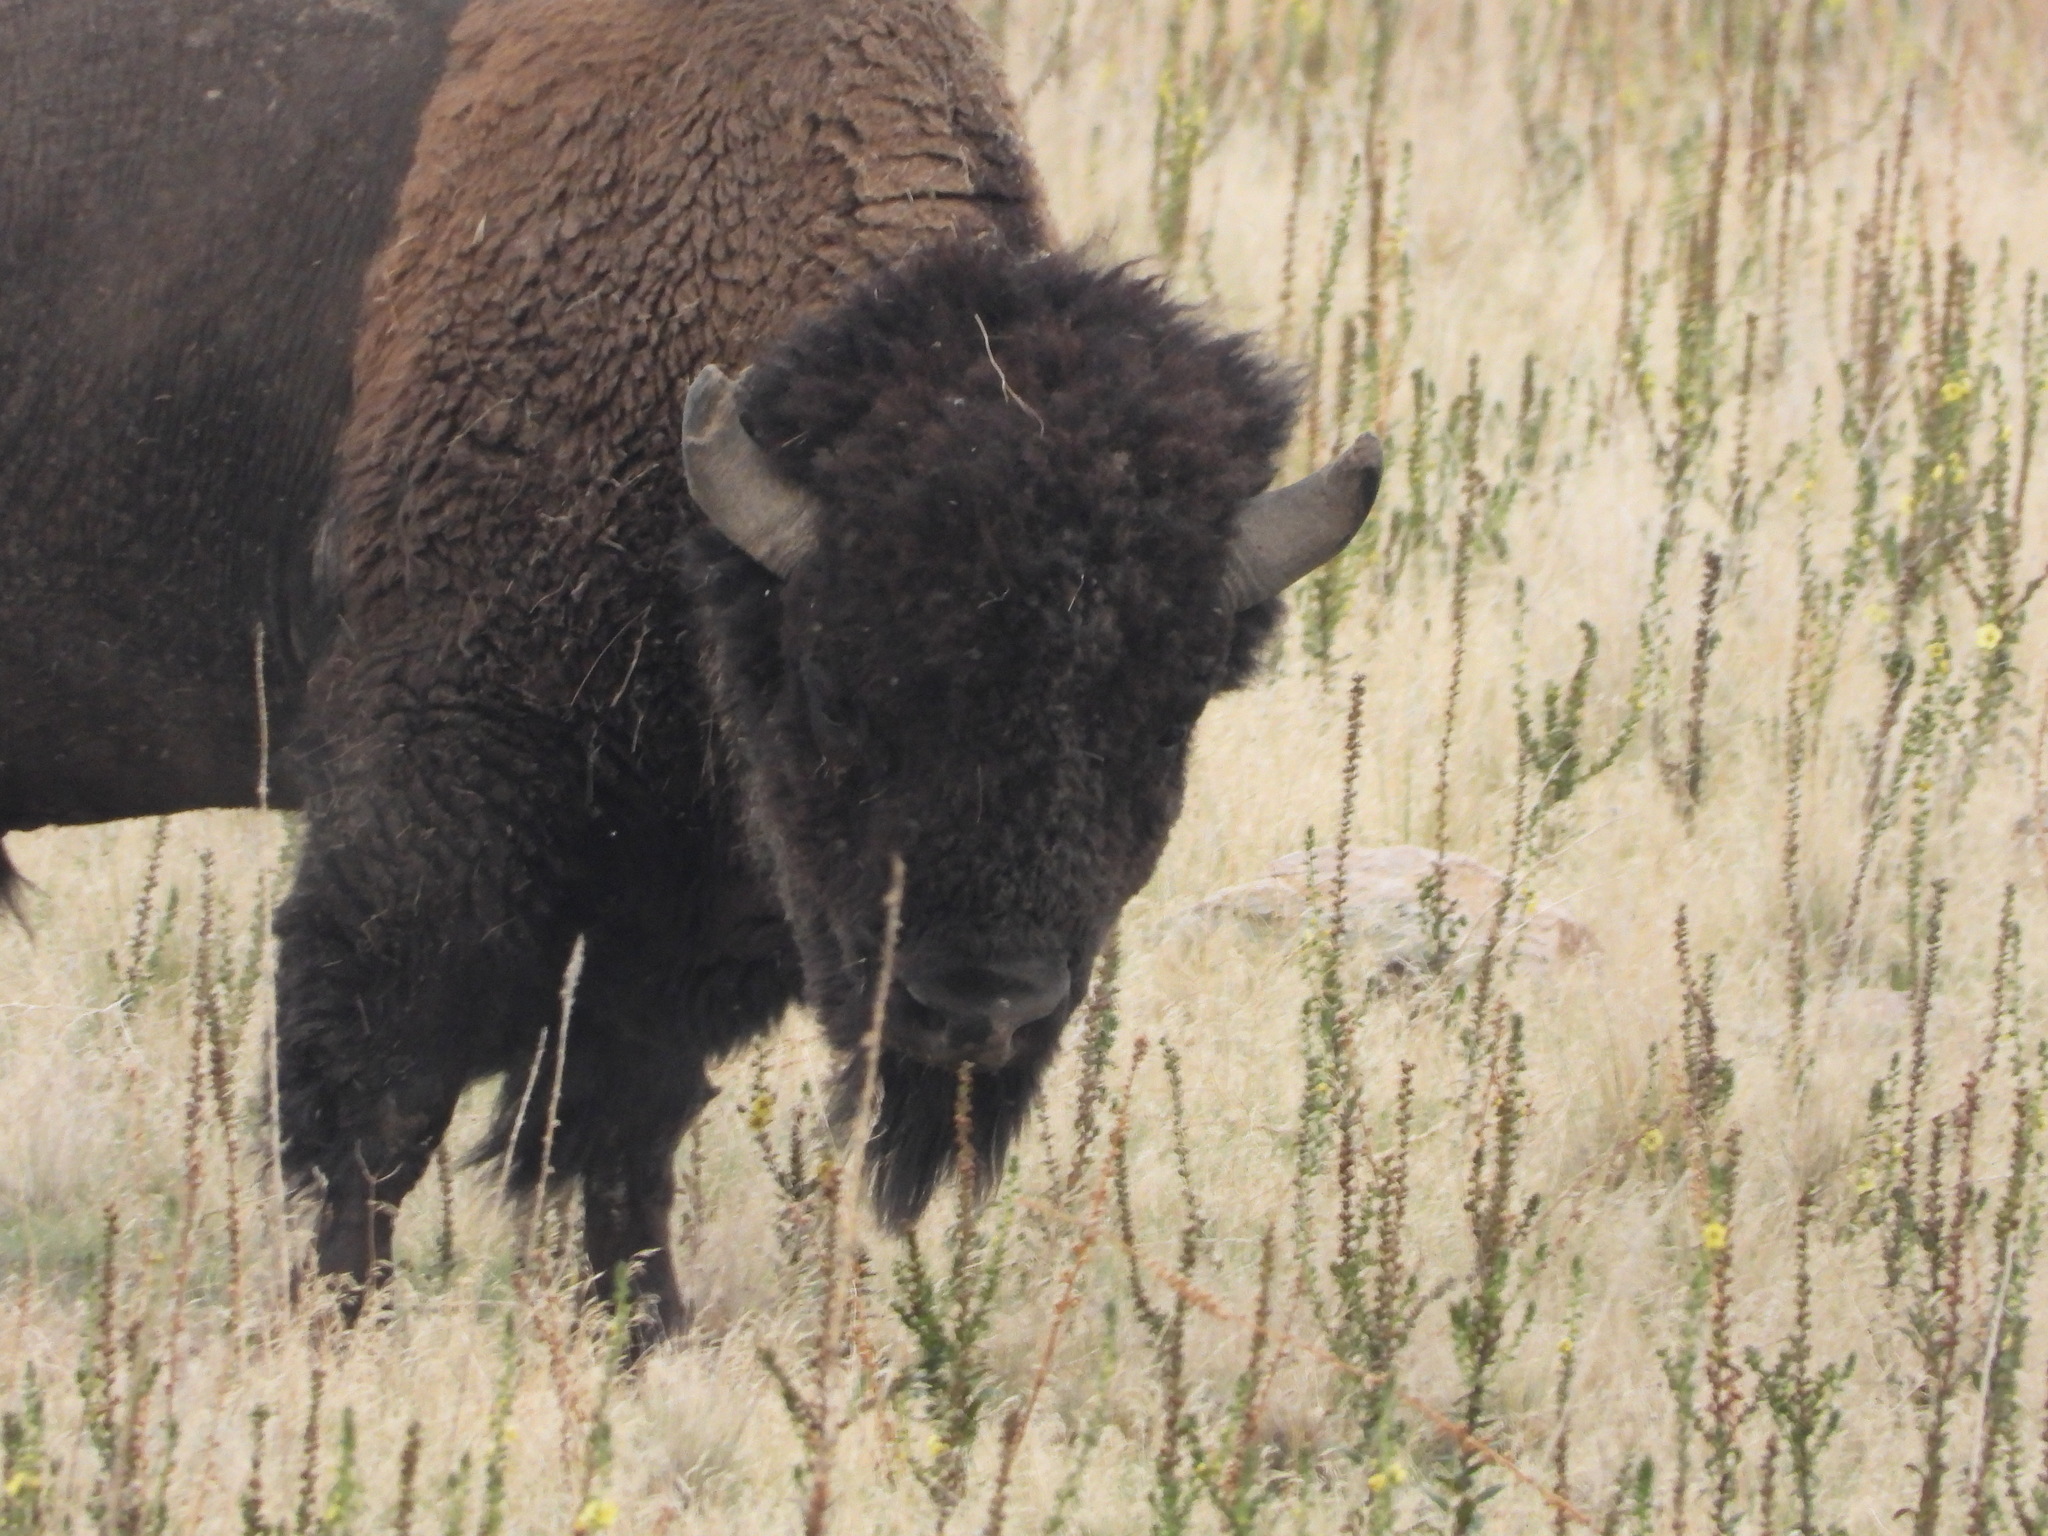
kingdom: Animalia
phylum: Chordata
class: Mammalia
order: Artiodactyla
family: Bovidae
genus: Bison
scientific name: Bison bison
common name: American bison
